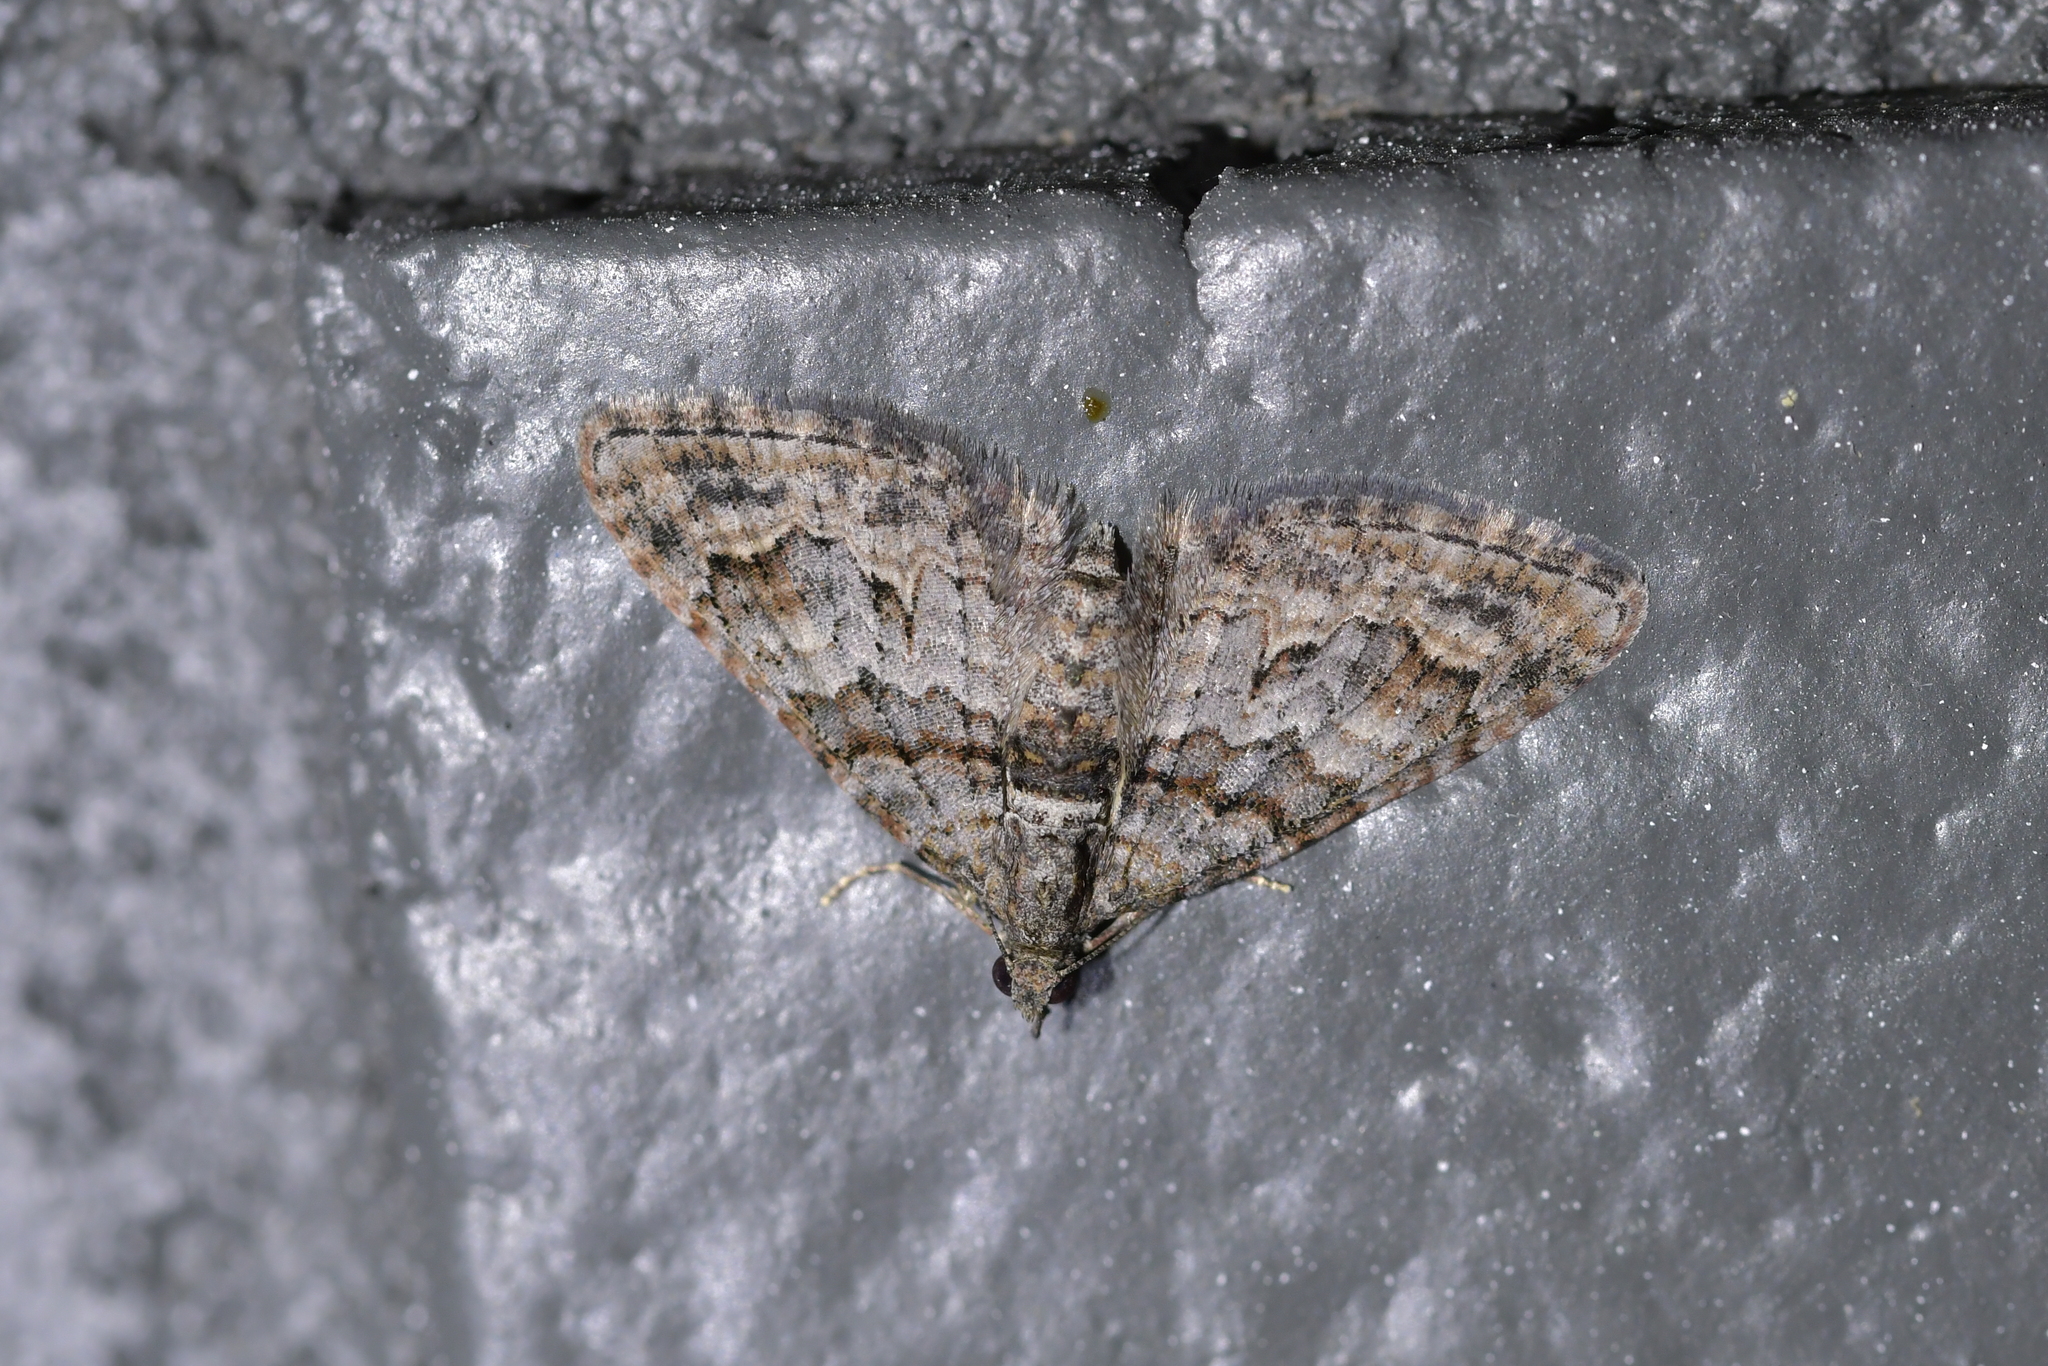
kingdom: Animalia
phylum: Arthropoda
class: Insecta
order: Lepidoptera
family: Geometridae
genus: Phrissogonus
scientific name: Phrissogonus laticostata
